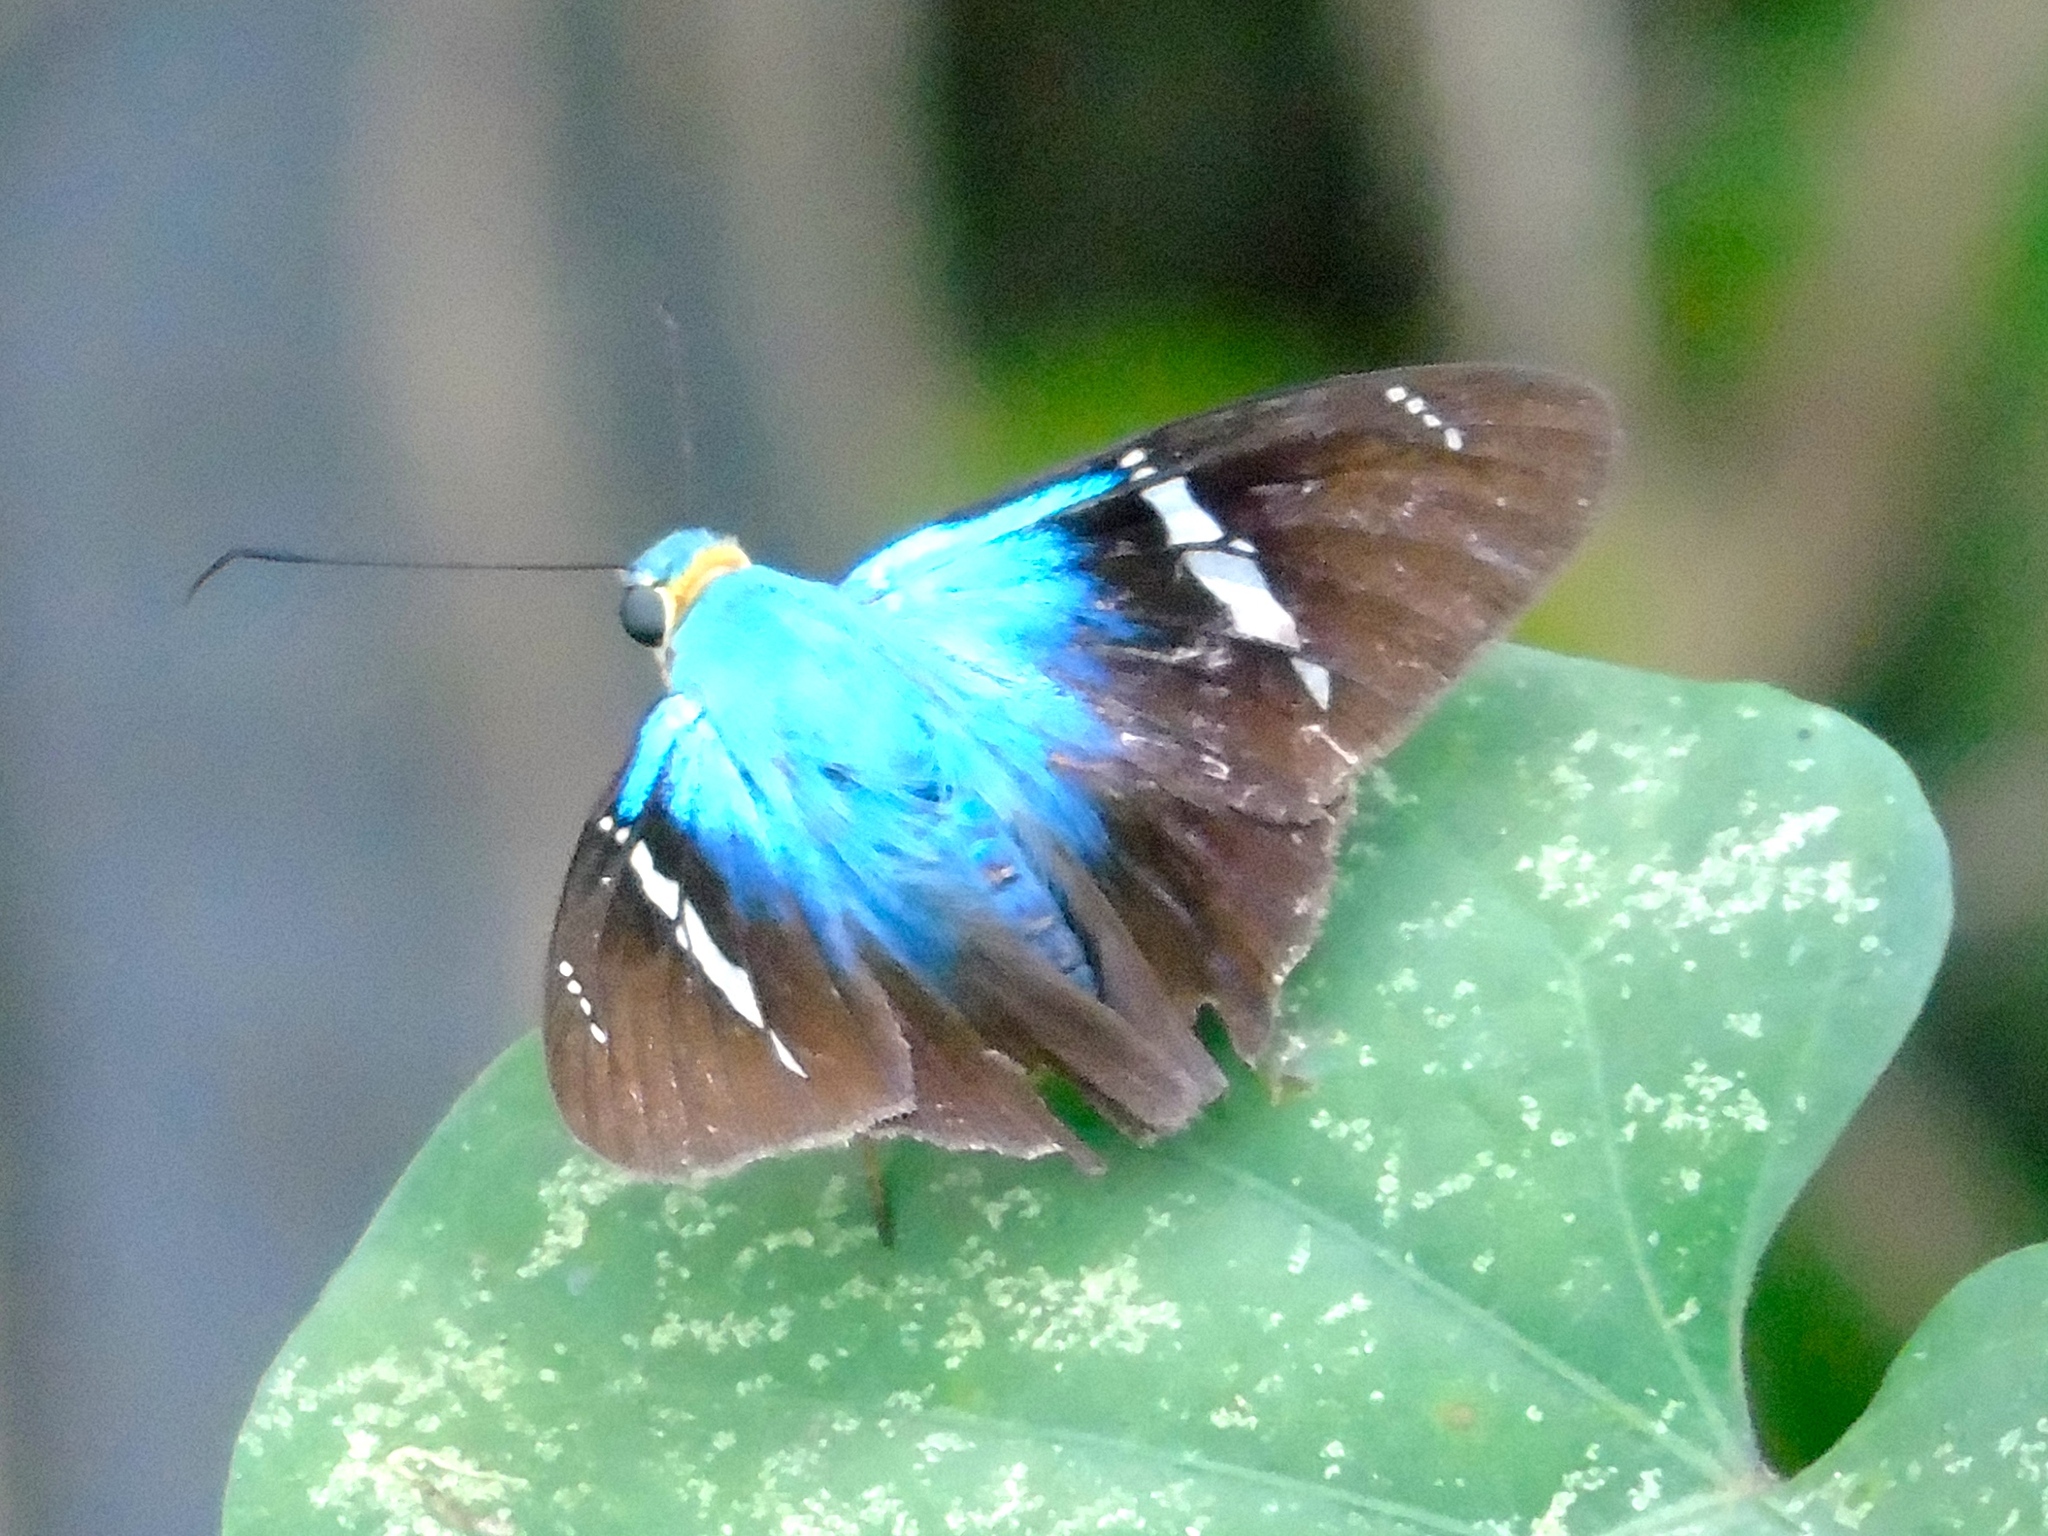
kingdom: Animalia
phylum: Arthropoda
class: Insecta
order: Lepidoptera
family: Hesperiidae
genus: Astraptes
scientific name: Astraptes fulgerator
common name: Two-barred flasher
